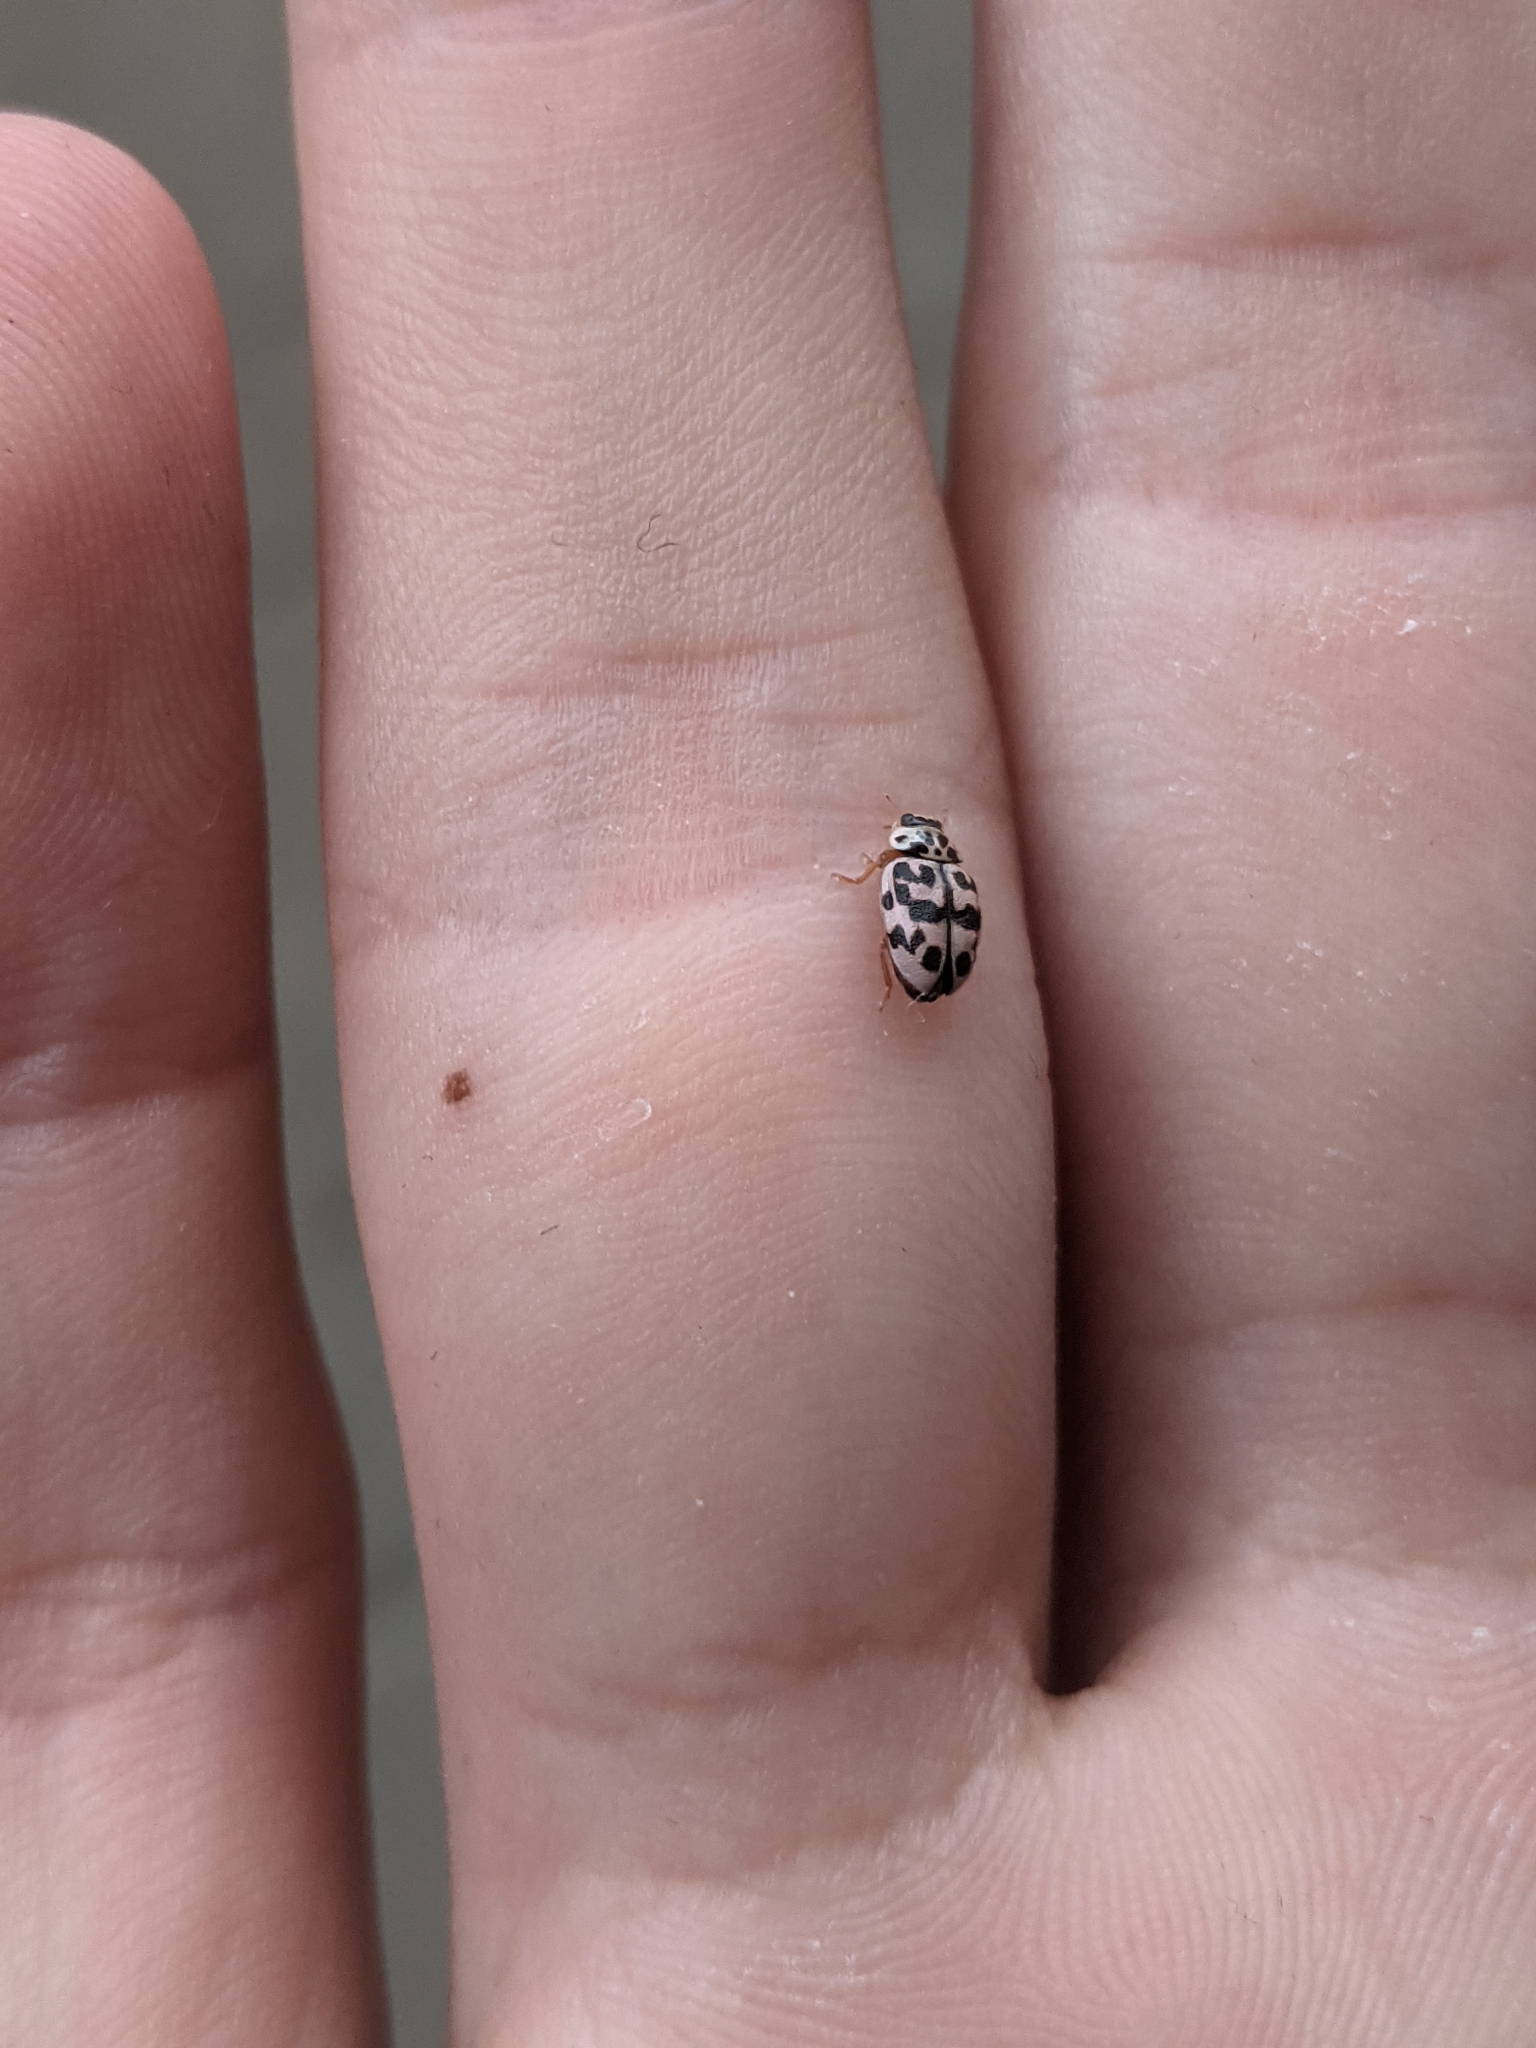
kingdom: Animalia
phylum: Arthropoda
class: Insecta
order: Coleoptera
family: Coccinellidae
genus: Oenopia
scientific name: Oenopia conglobata
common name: Ladybird beetle
